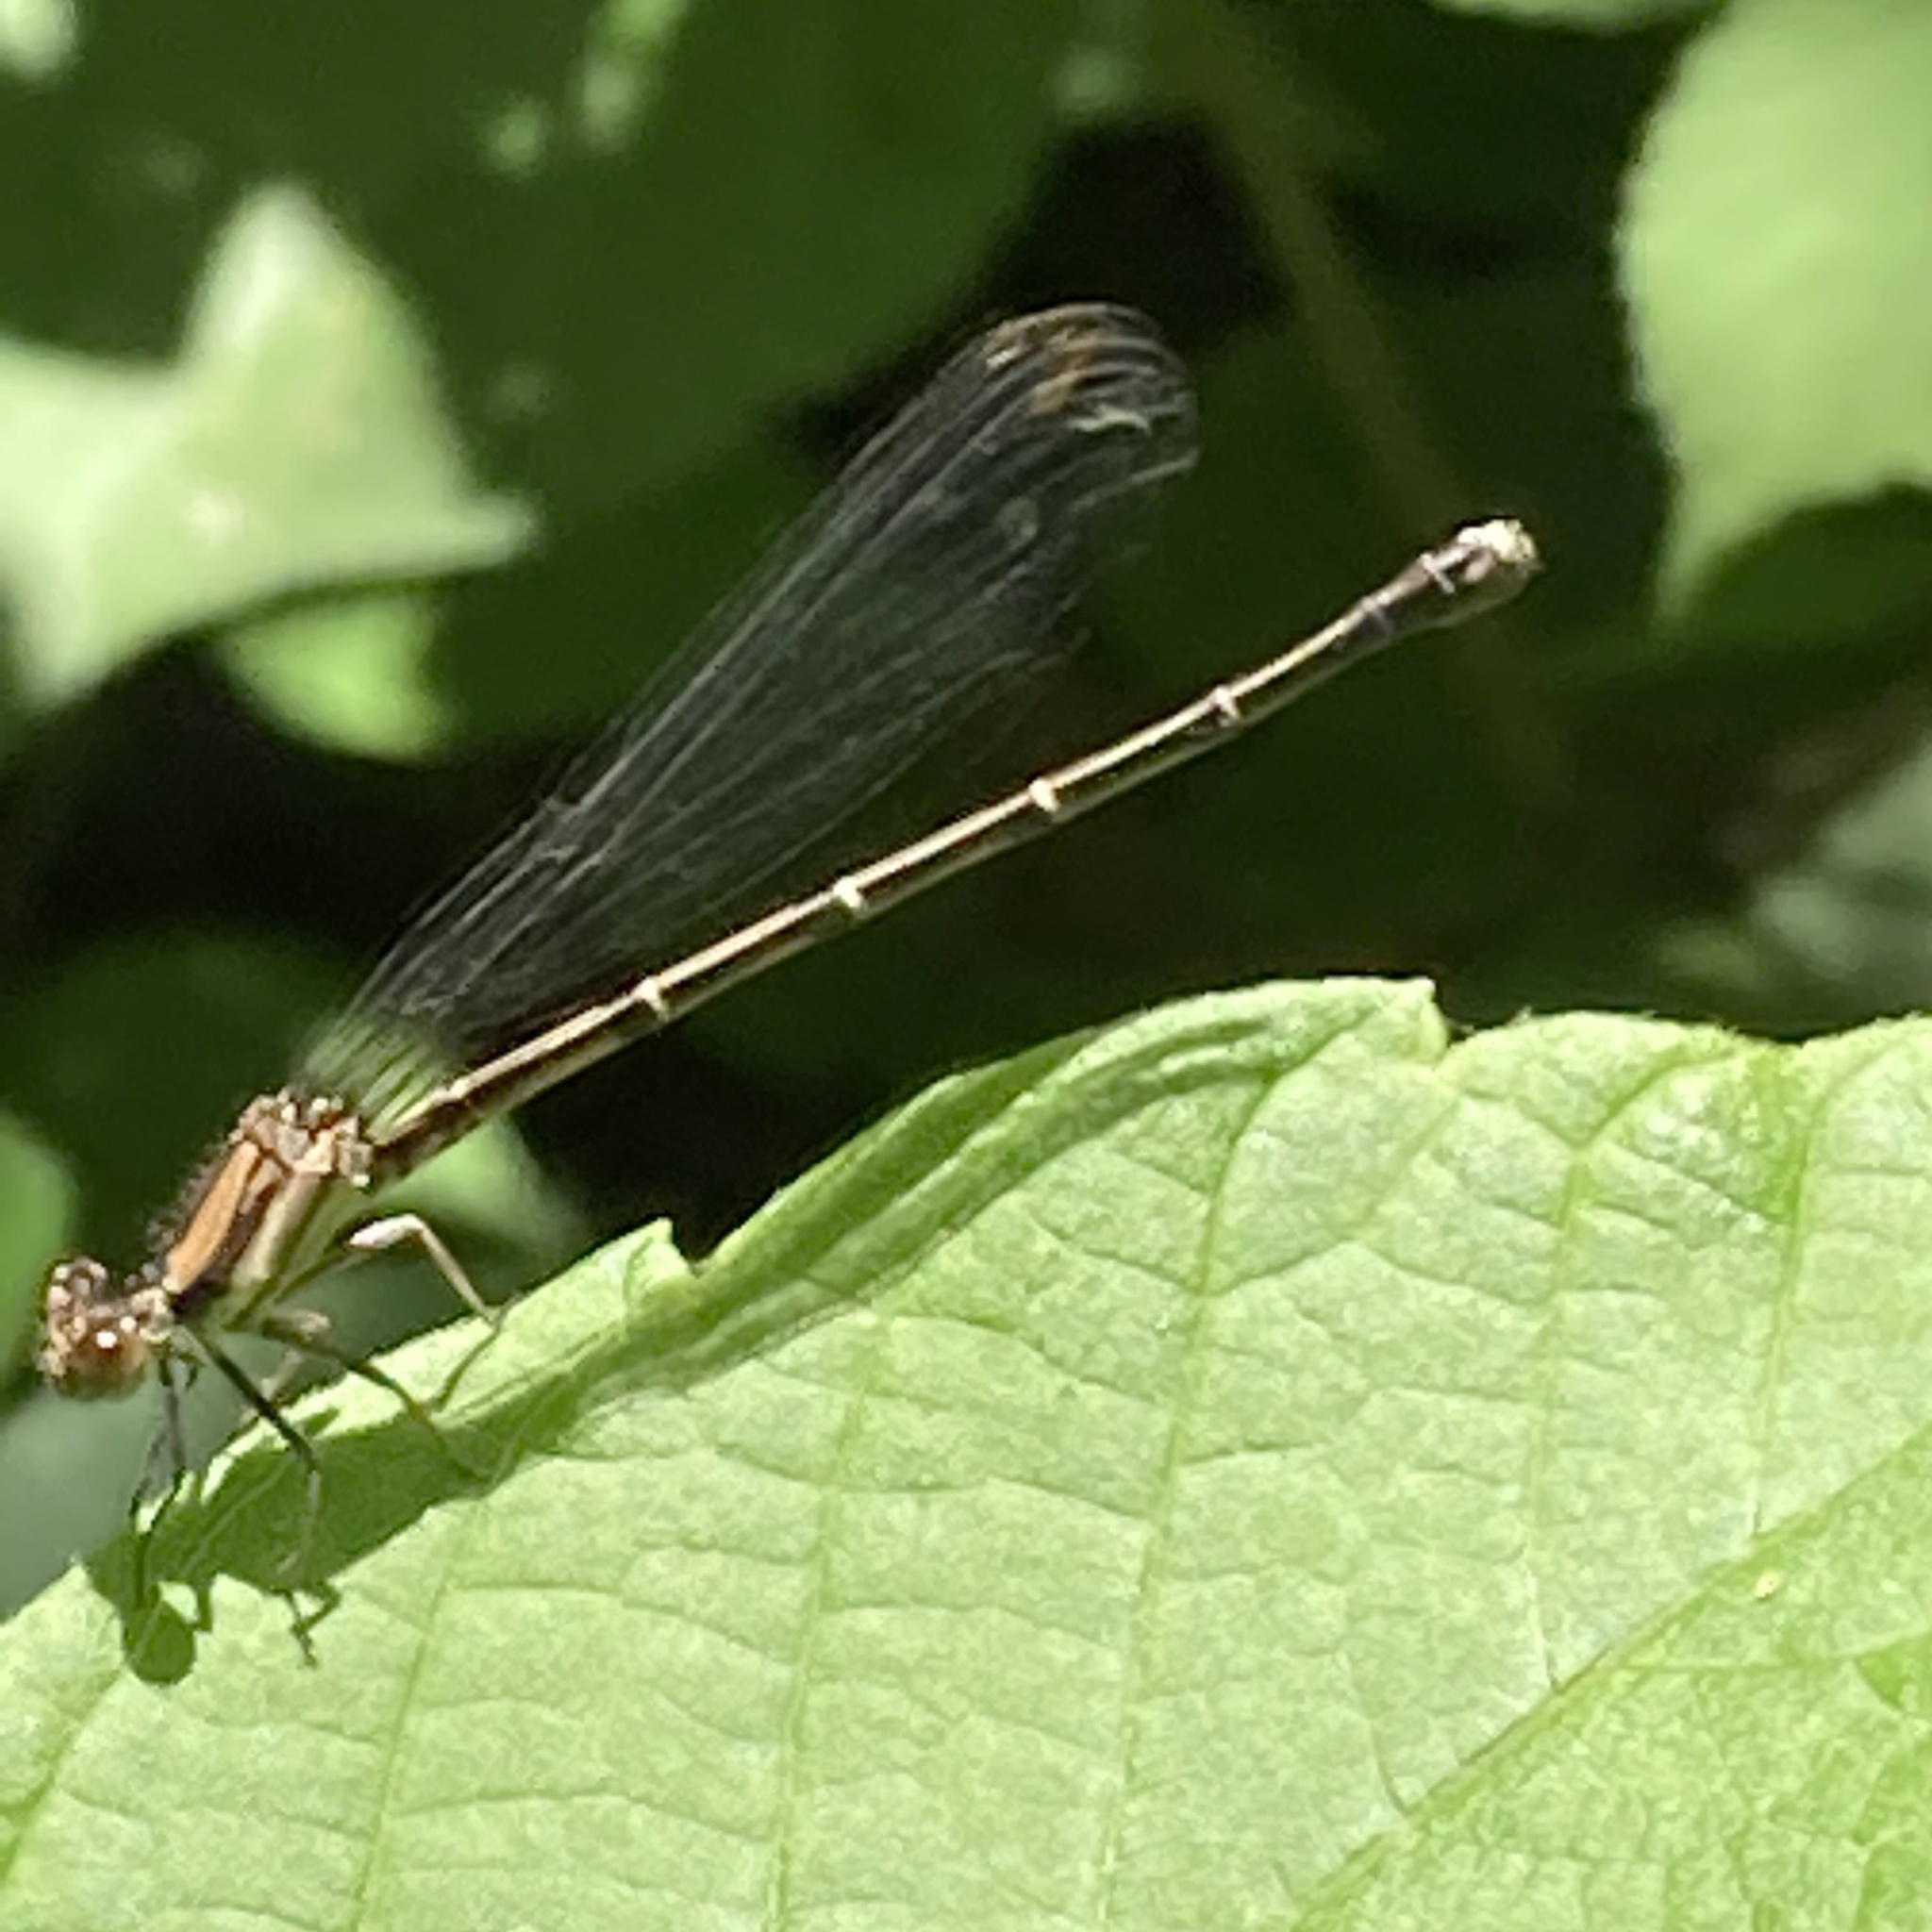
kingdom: Animalia
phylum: Arthropoda
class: Insecta
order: Odonata
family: Coenagrionidae
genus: Argia
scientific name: Argia tibialis
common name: Blue-tipped dancer
